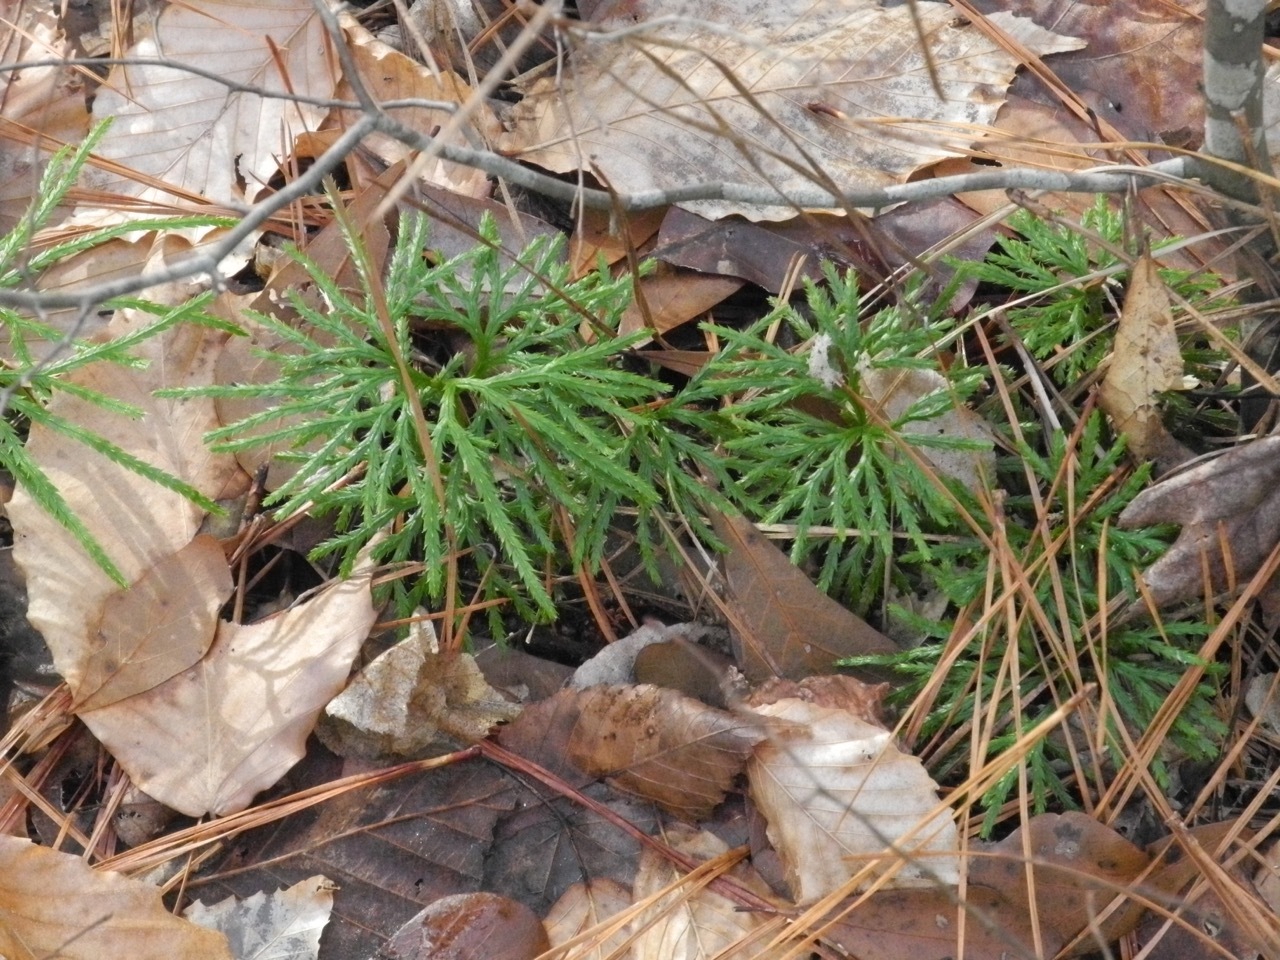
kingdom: Plantae
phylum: Tracheophyta
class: Lycopodiopsida
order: Lycopodiales
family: Lycopodiaceae
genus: Diphasiastrum
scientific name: Diphasiastrum digitatum
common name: Southern running-pine
